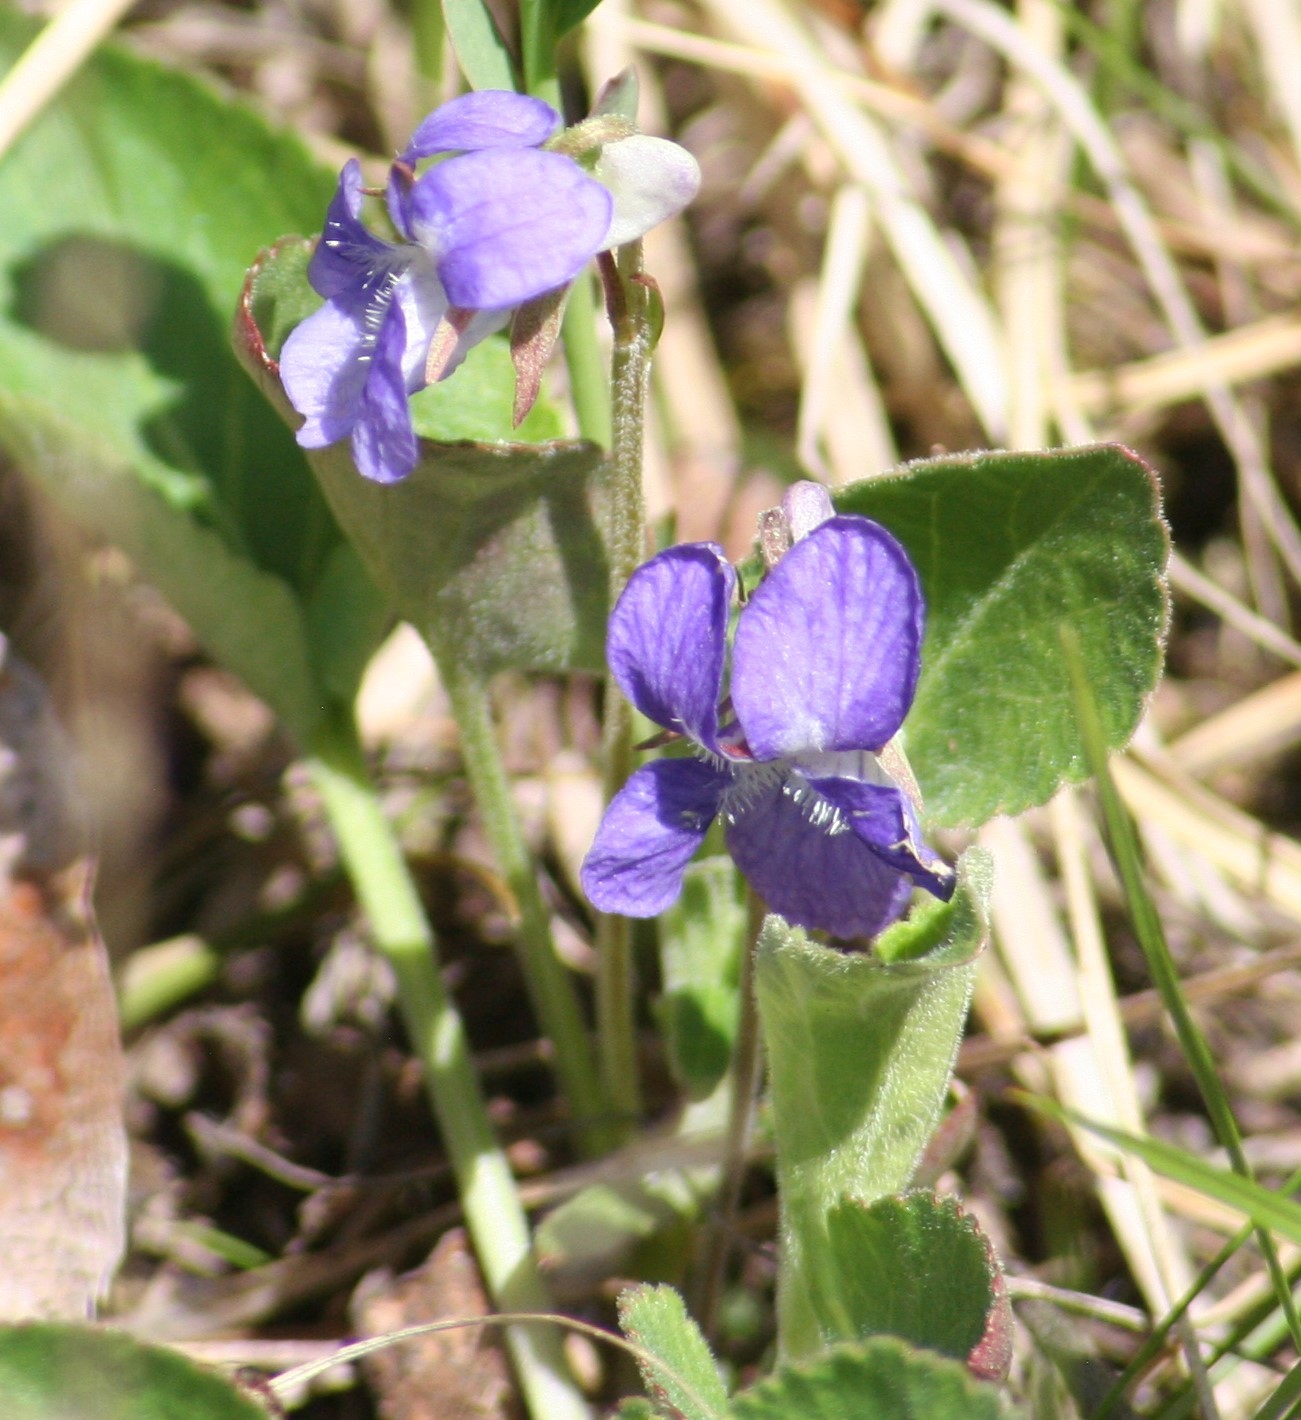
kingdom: Plantae
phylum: Tracheophyta
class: Magnoliopsida
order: Malpighiales
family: Violaceae
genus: Viola
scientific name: Viola adunca
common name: Sand violet
